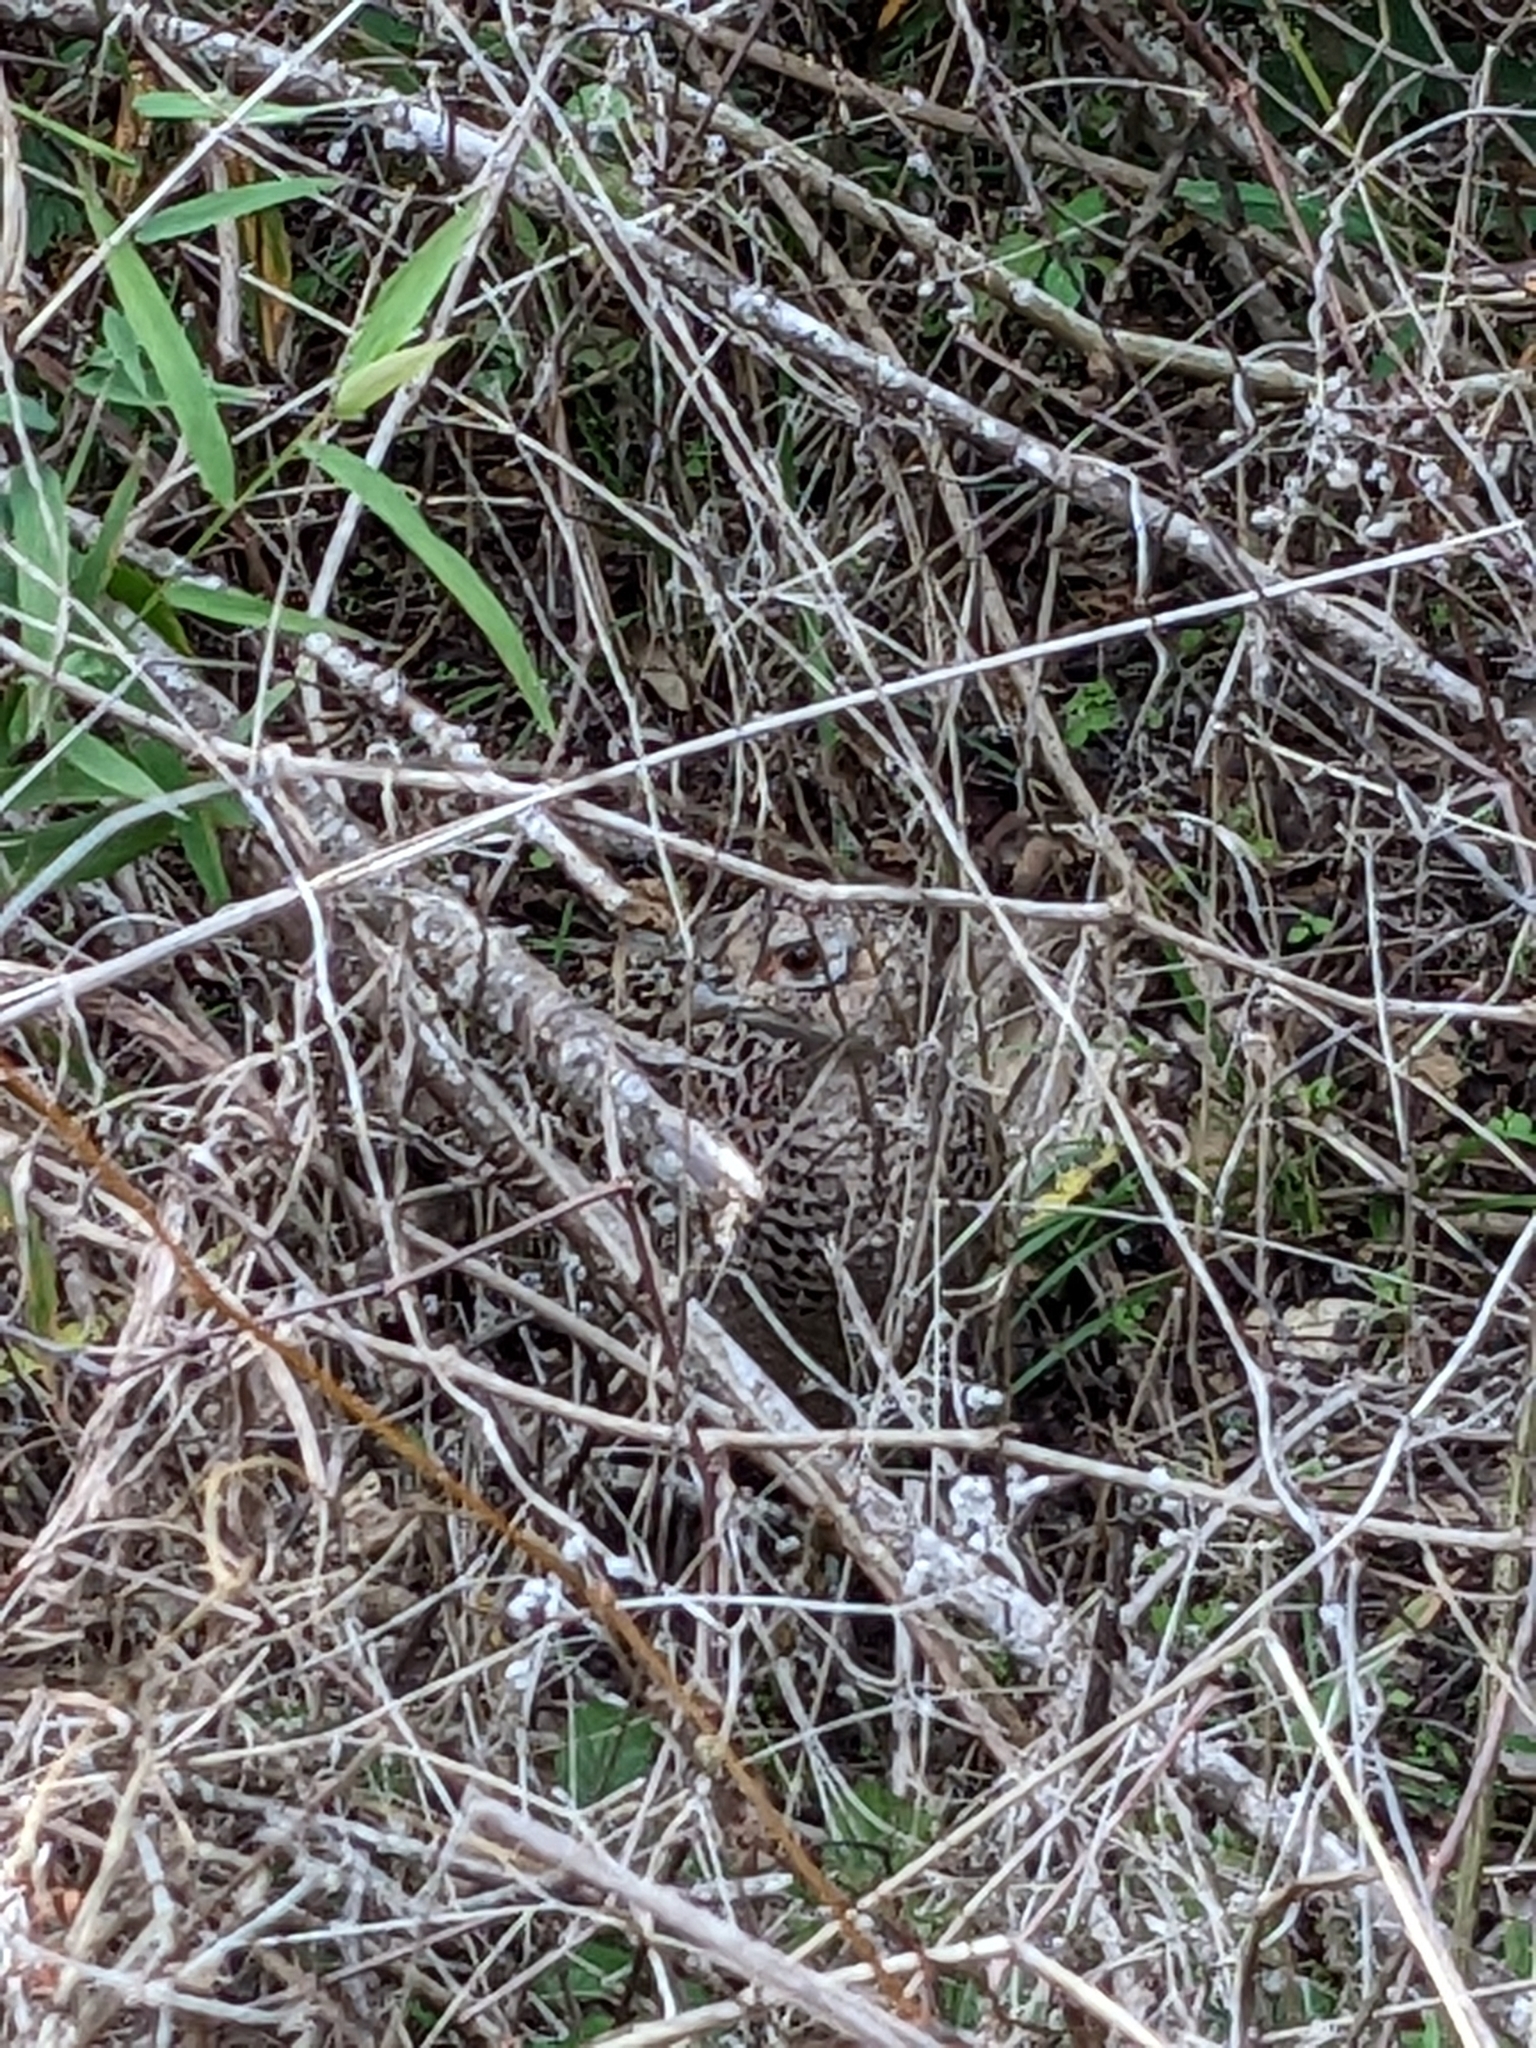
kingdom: Animalia
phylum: Chordata
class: Aves
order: Galliformes
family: Phasianidae
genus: Phasianus
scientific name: Phasianus colchicus
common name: Common pheasant
